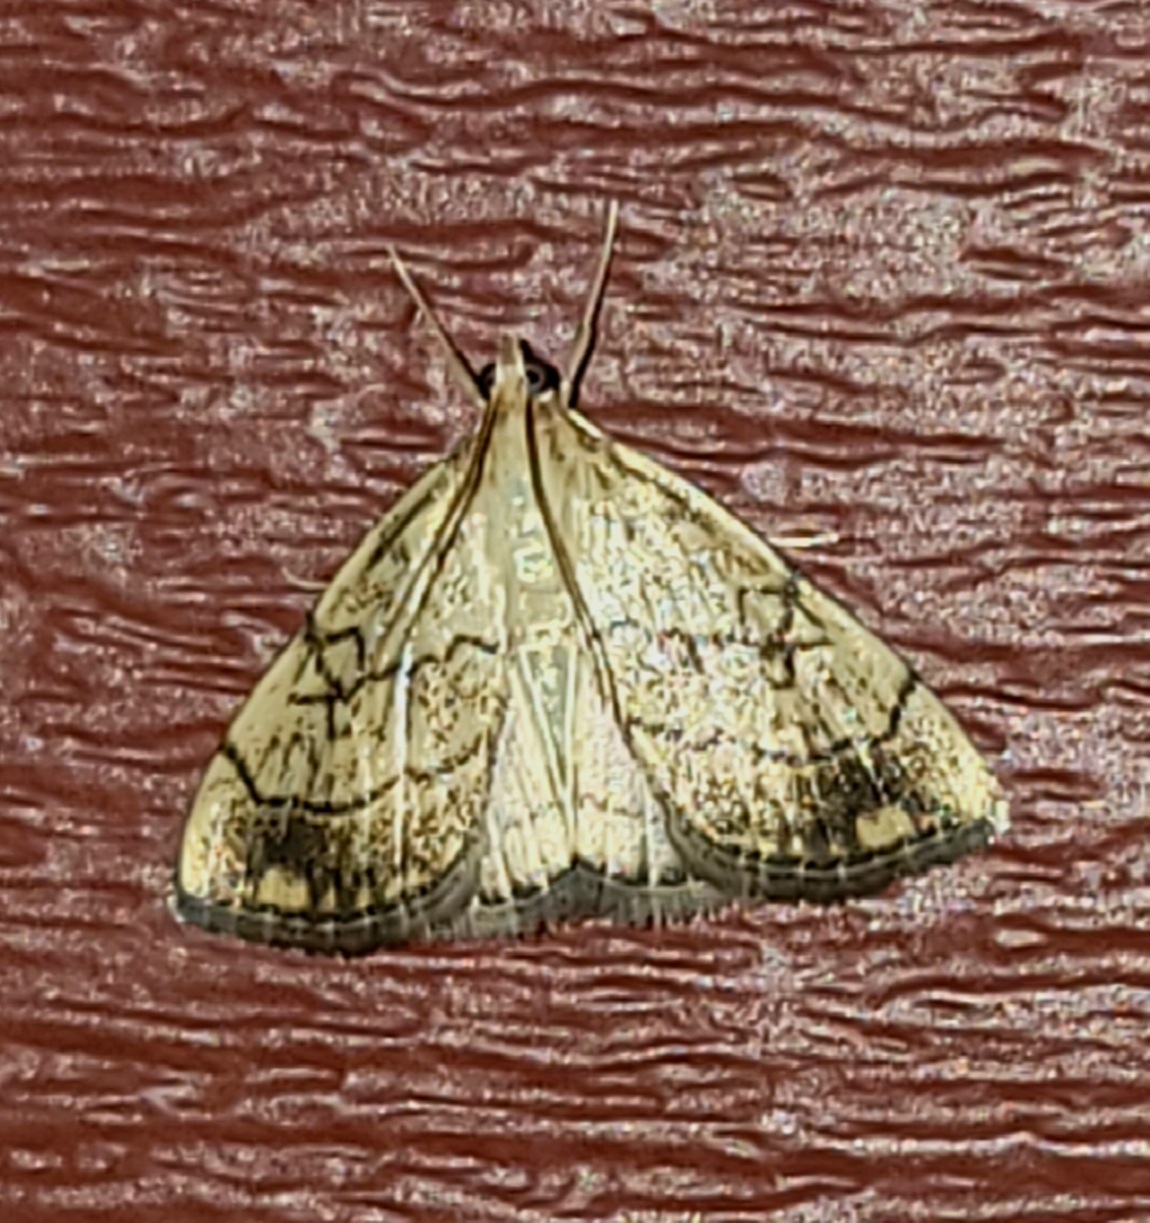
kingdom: Animalia
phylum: Arthropoda
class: Insecta
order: Lepidoptera
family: Crambidae
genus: Evergestis
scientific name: Evergestis pallidata
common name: Chequered pearl
